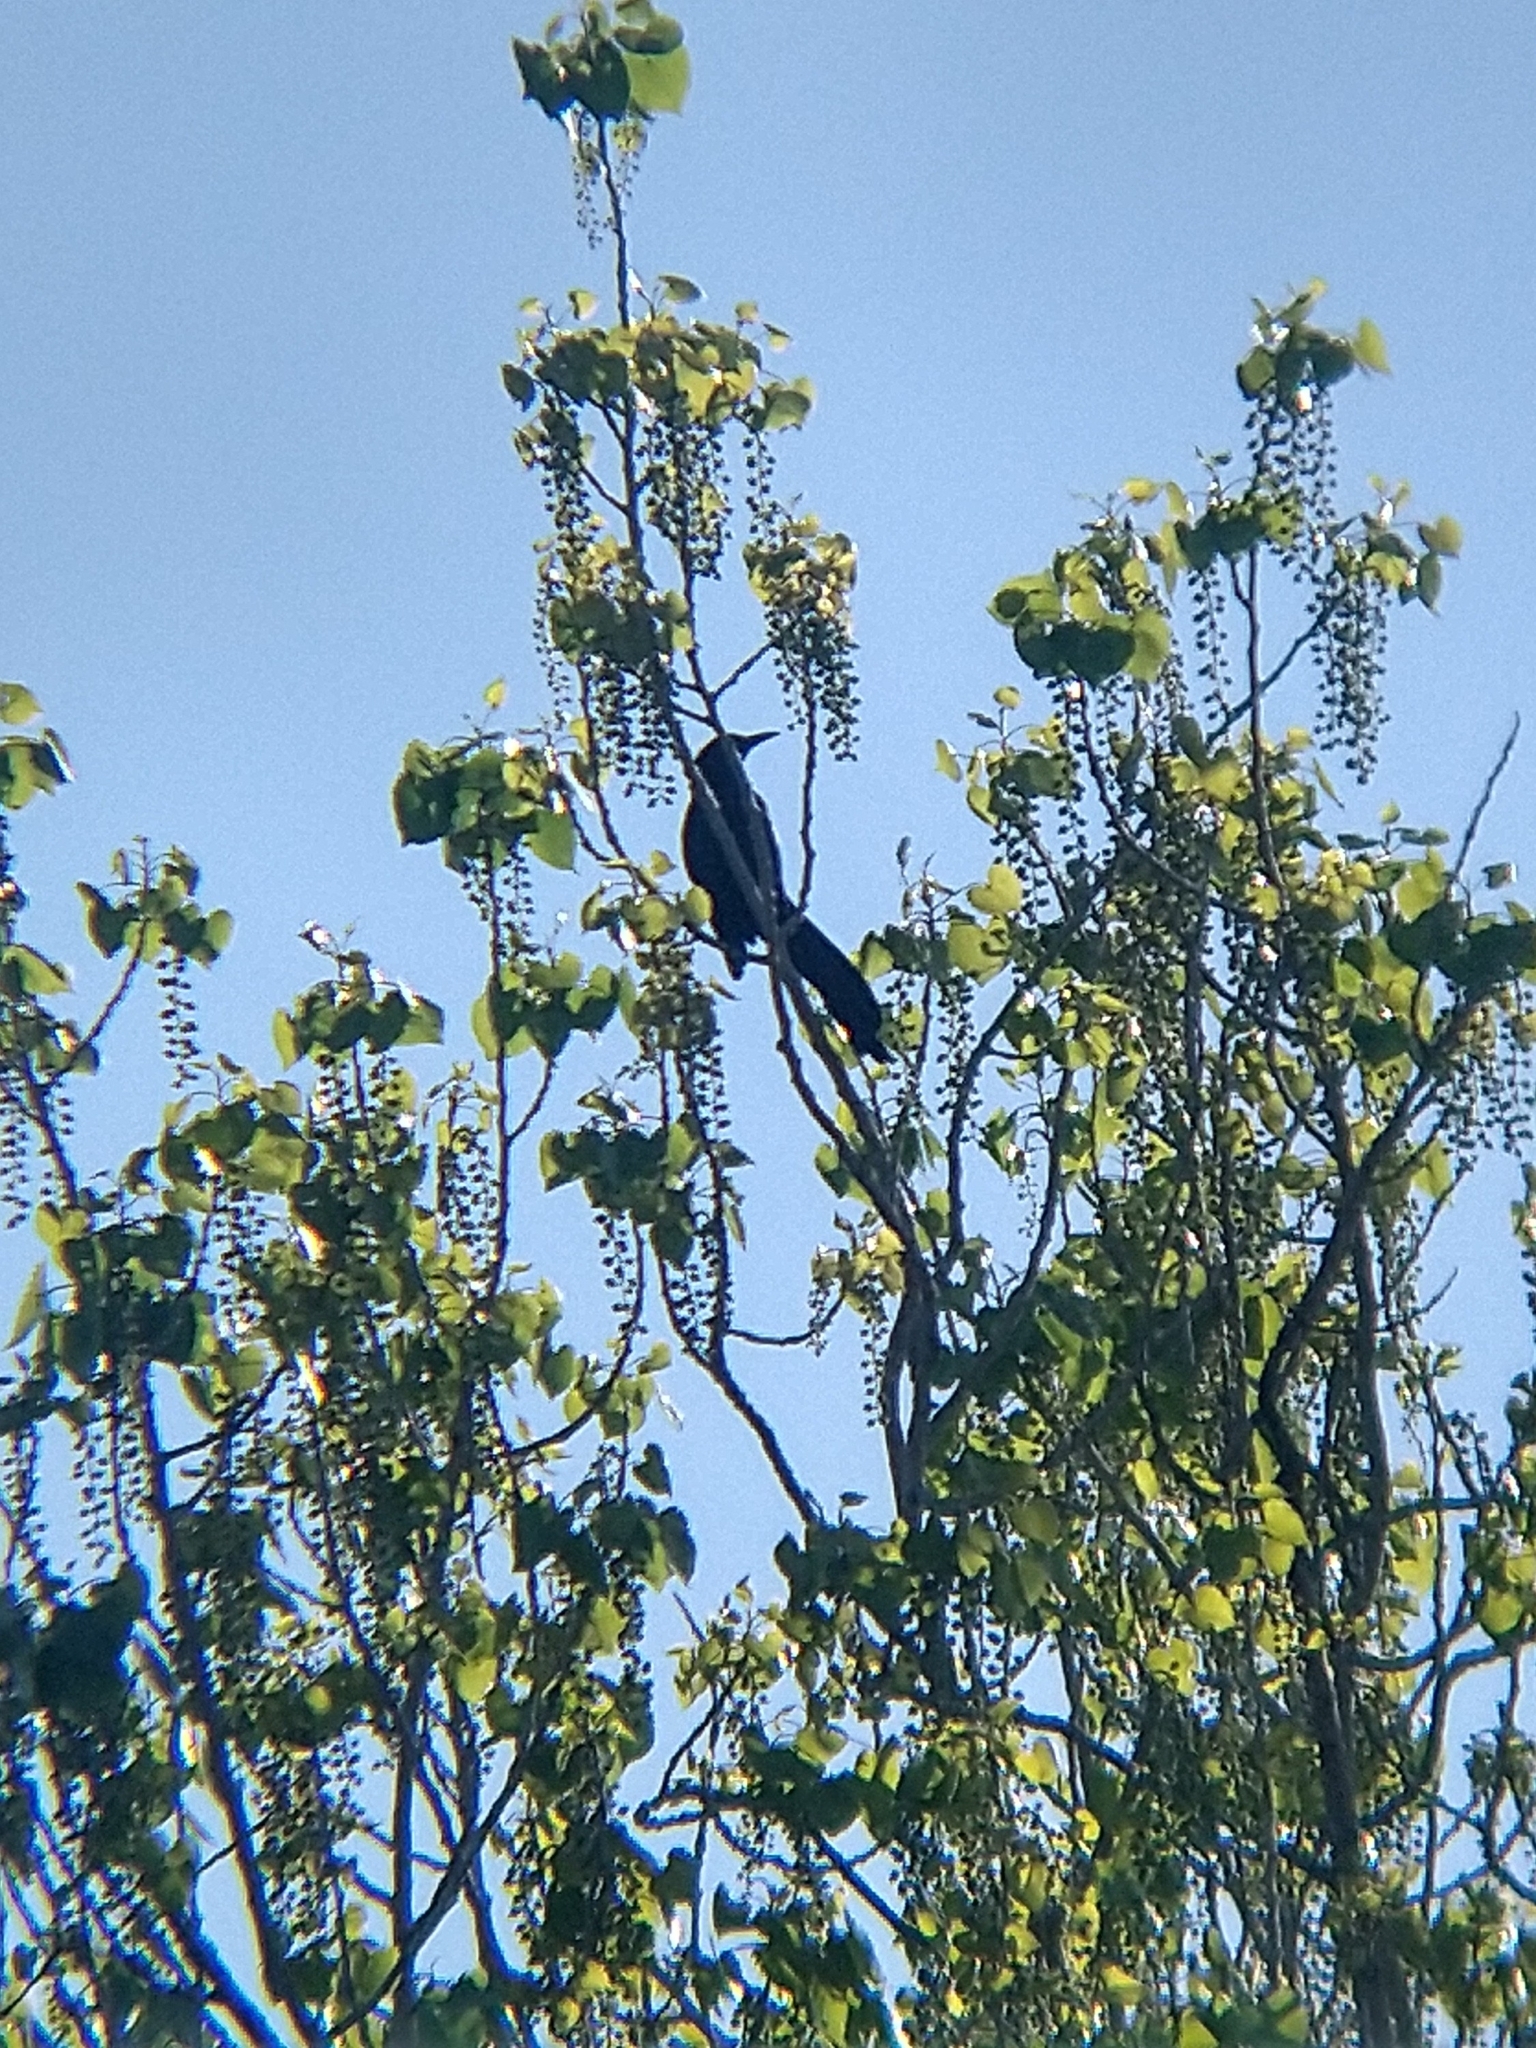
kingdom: Animalia
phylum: Chordata
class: Aves
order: Passeriformes
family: Icteridae
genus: Quiscalus
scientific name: Quiscalus mexicanus
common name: Great-tailed grackle
